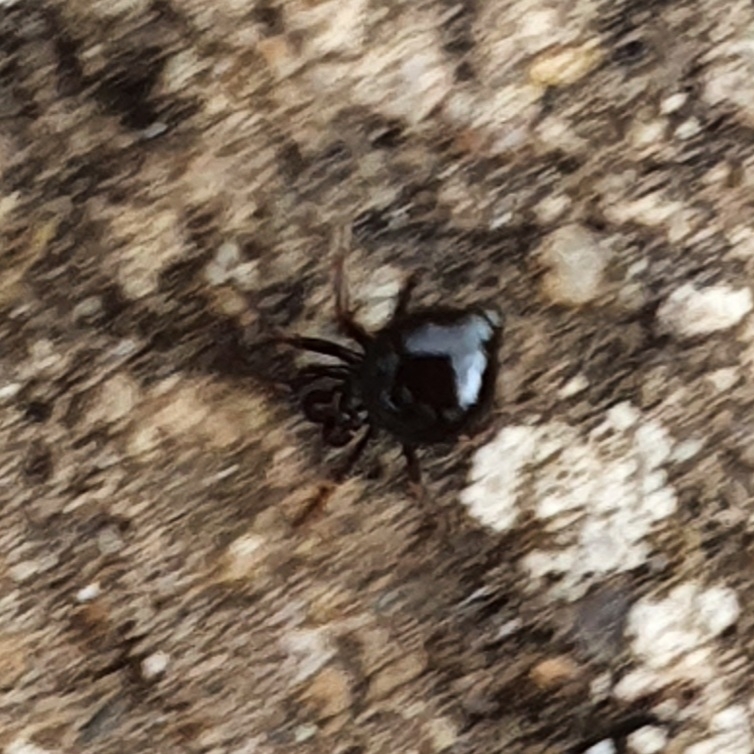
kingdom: Animalia
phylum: Arthropoda
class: Arachnida
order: Araneae
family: Theridiidae
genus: Euryopis
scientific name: Euryopis episinoides
